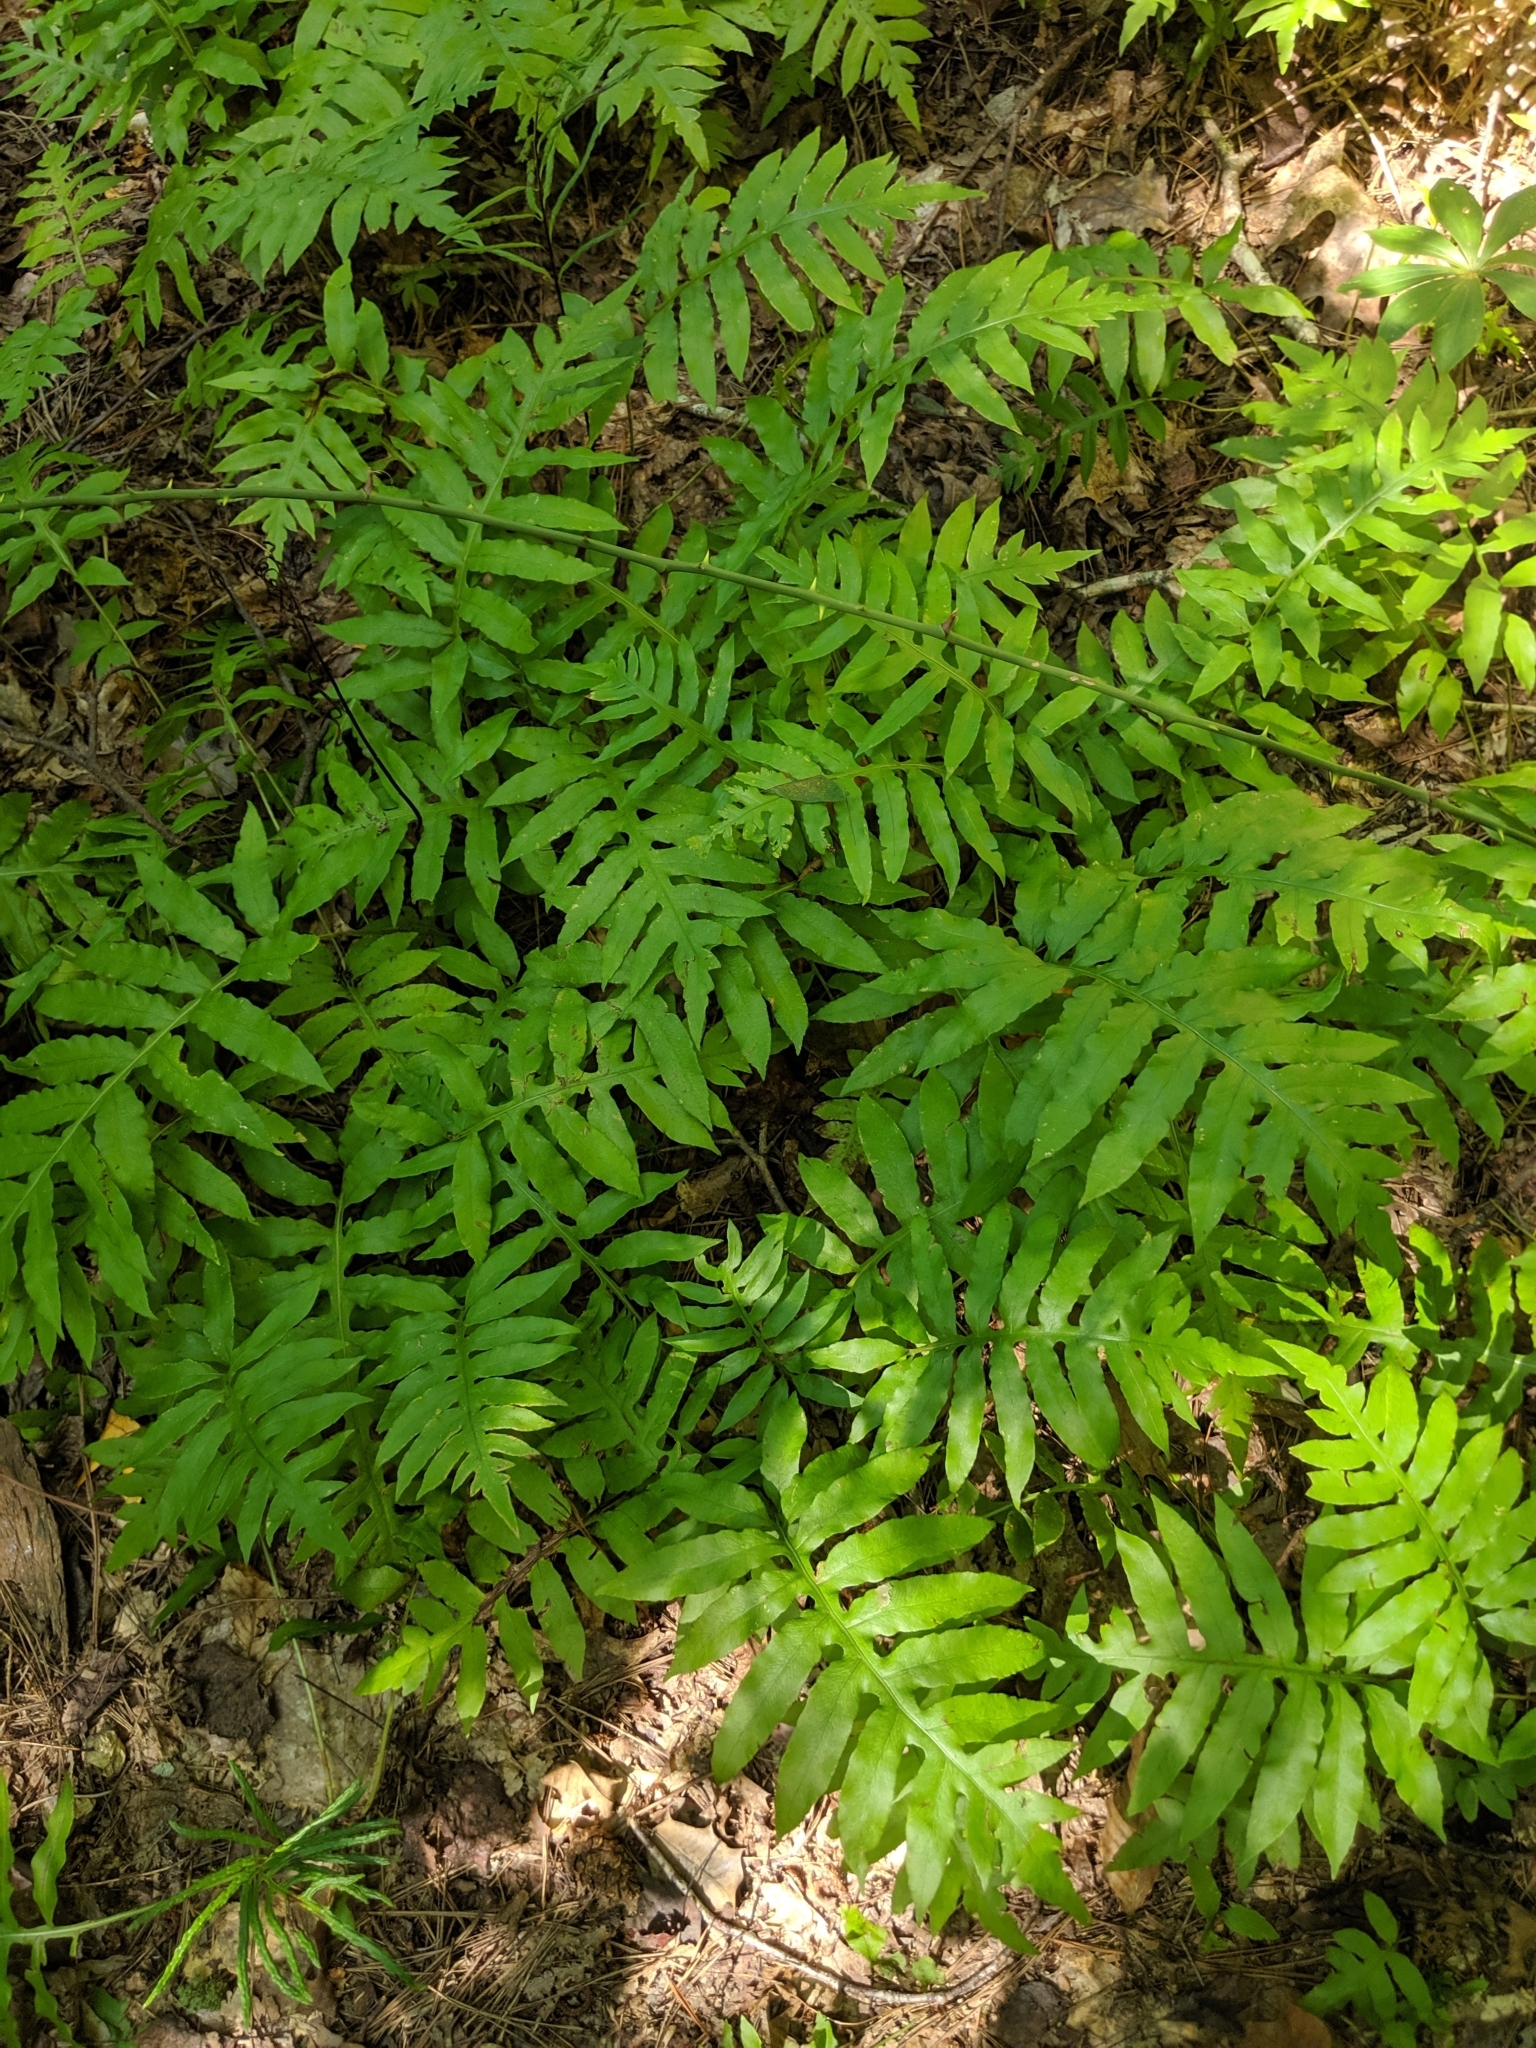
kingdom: Plantae
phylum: Tracheophyta
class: Polypodiopsida
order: Polypodiales
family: Blechnaceae
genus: Lorinseria
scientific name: Lorinseria areolata
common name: Dwarf chain fern
